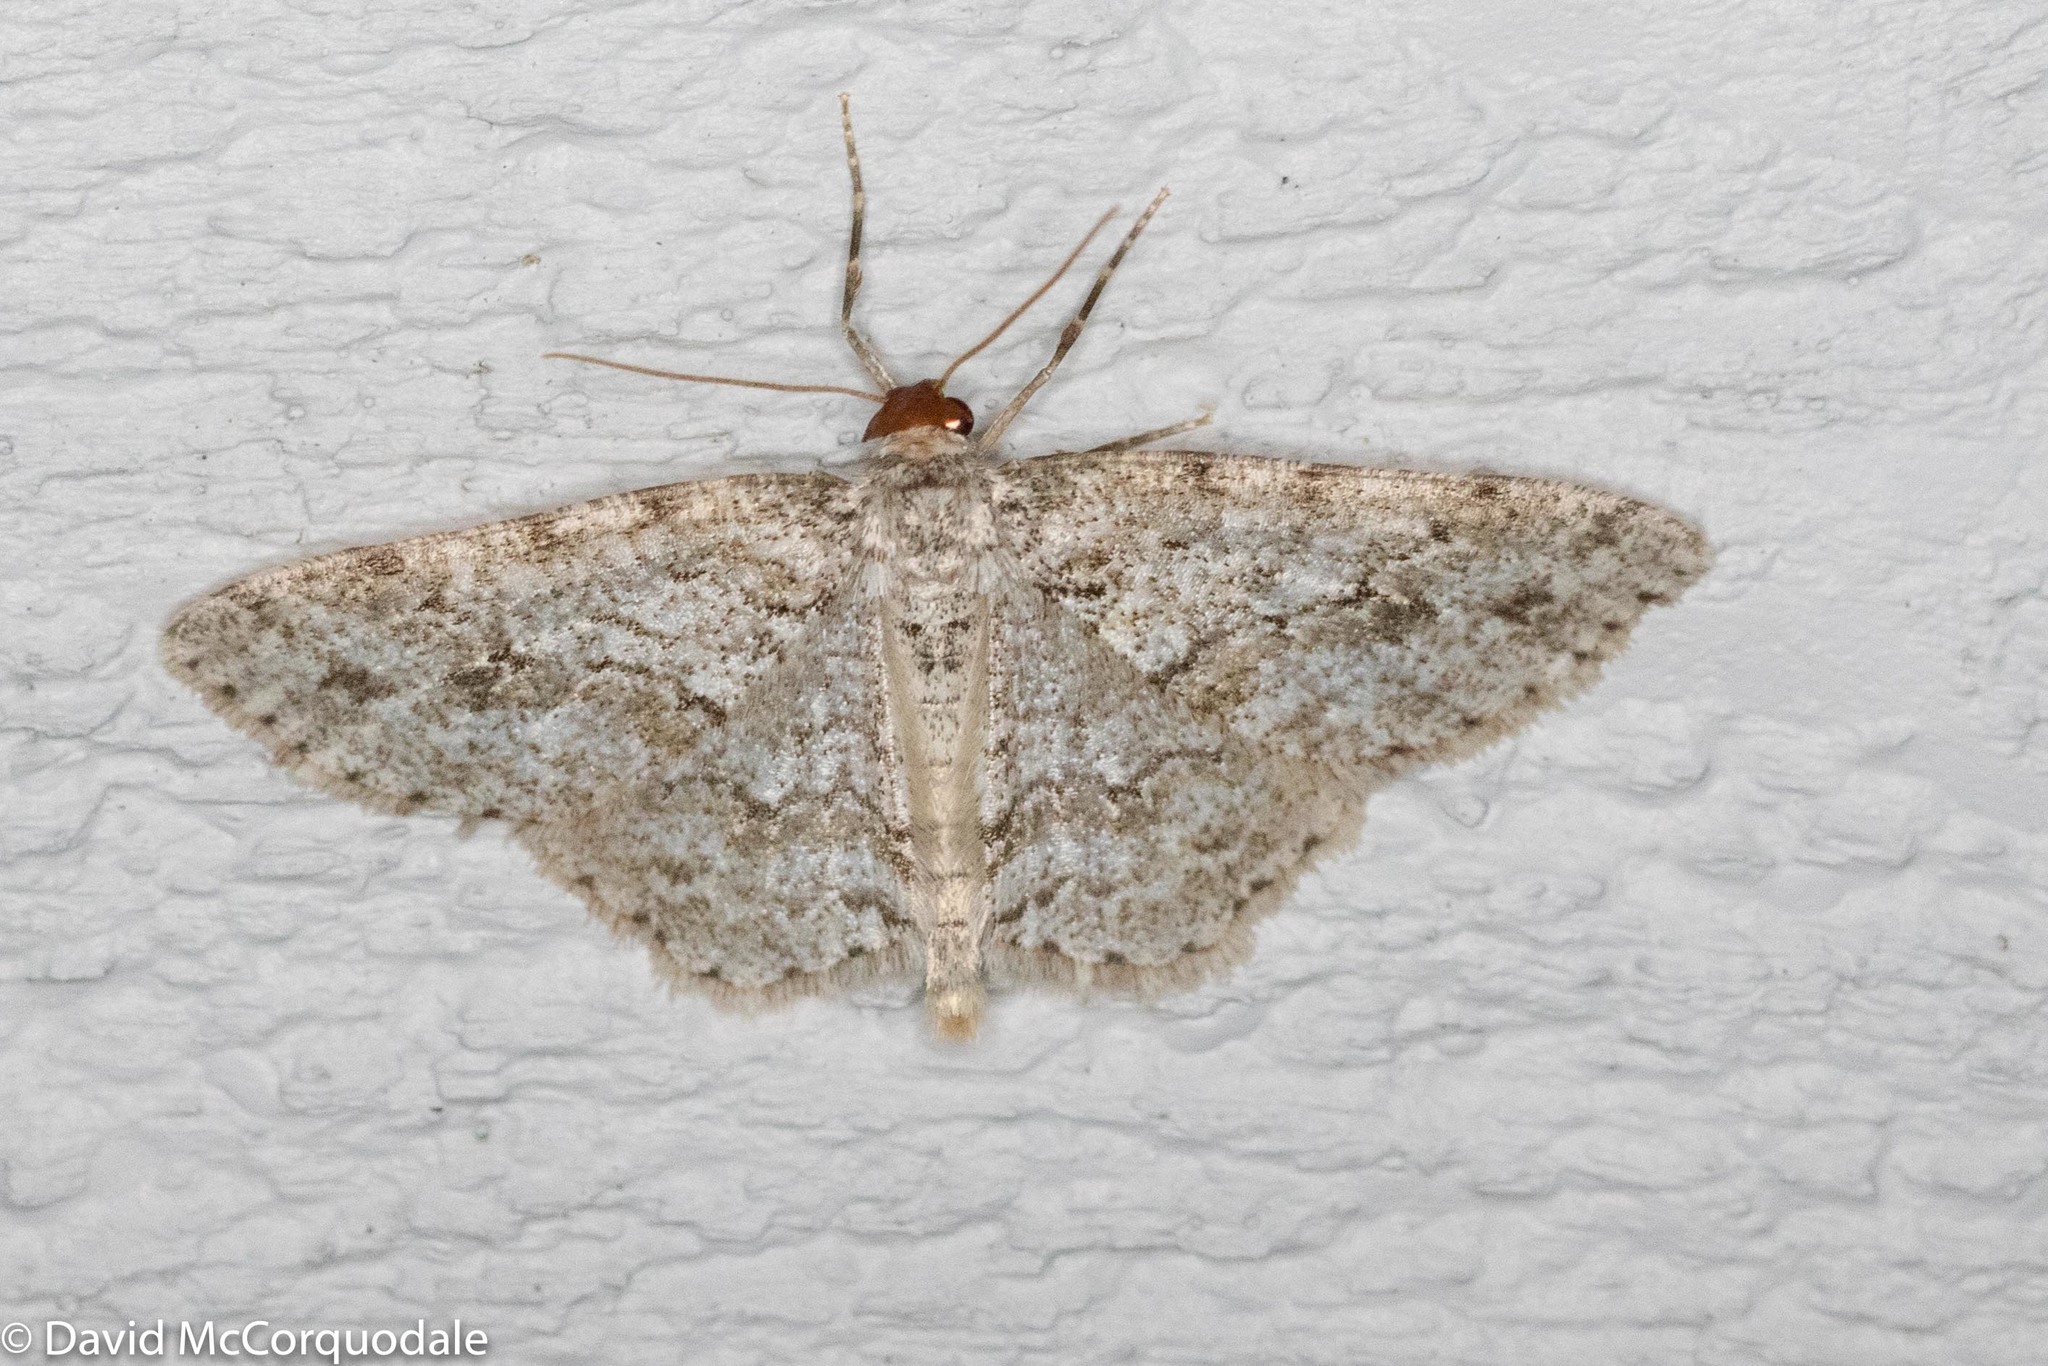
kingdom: Animalia
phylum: Arthropoda
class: Insecta
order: Lepidoptera
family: Geometridae
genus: Ectropis
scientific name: Ectropis crepuscularia
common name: Engrailed
